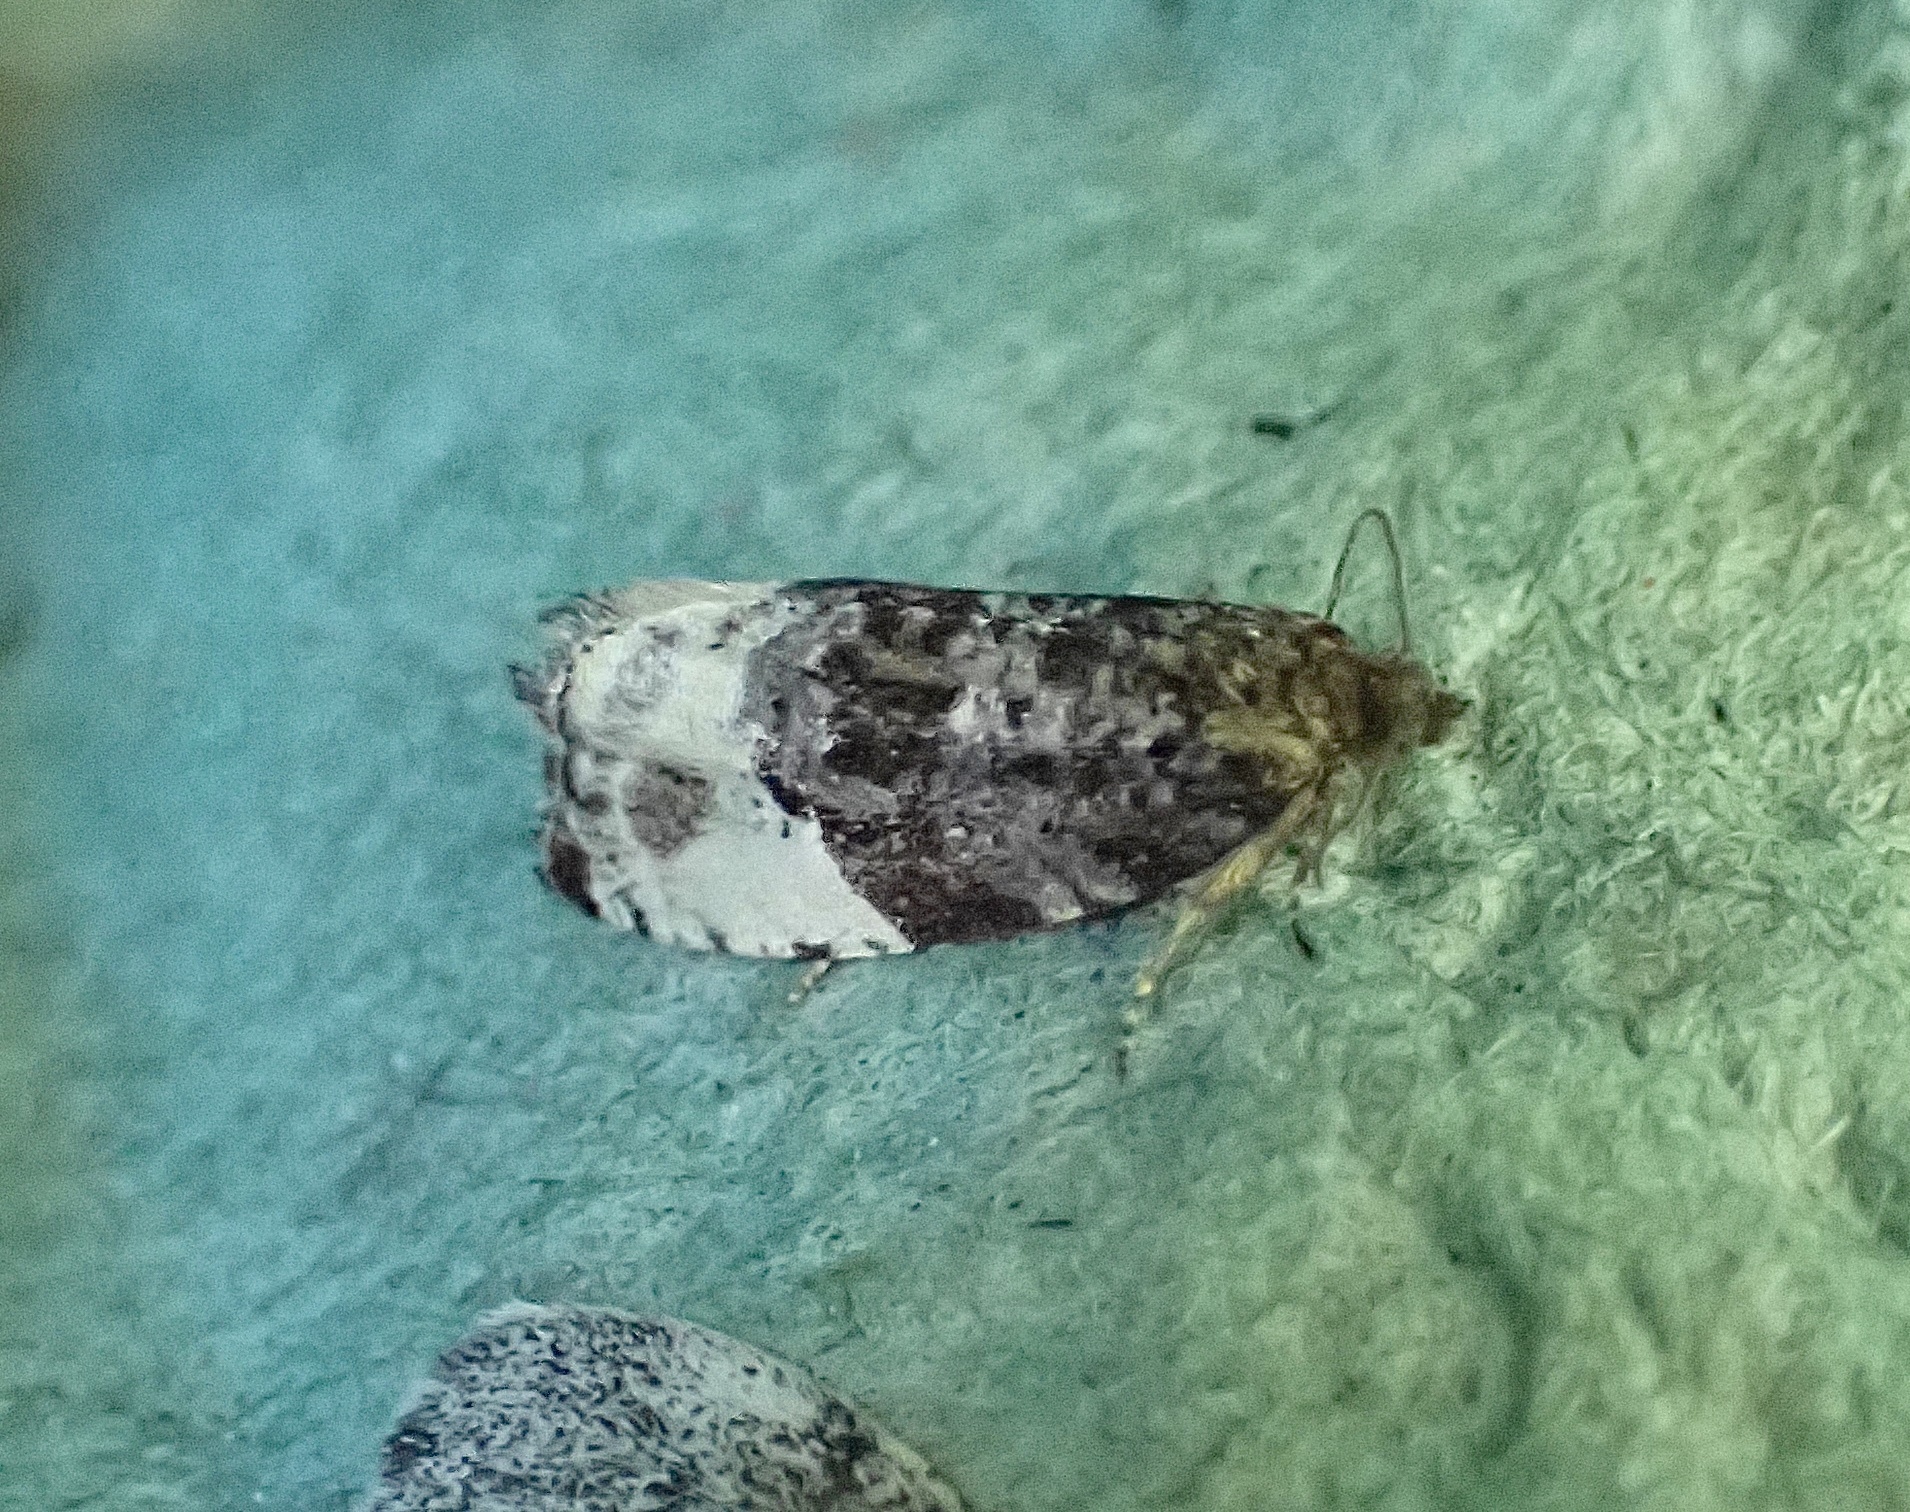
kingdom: Animalia
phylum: Arthropoda
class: Insecta
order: Lepidoptera
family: Tortricidae
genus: Hedya
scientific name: Hedya pruniana
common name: Plum tortrix
